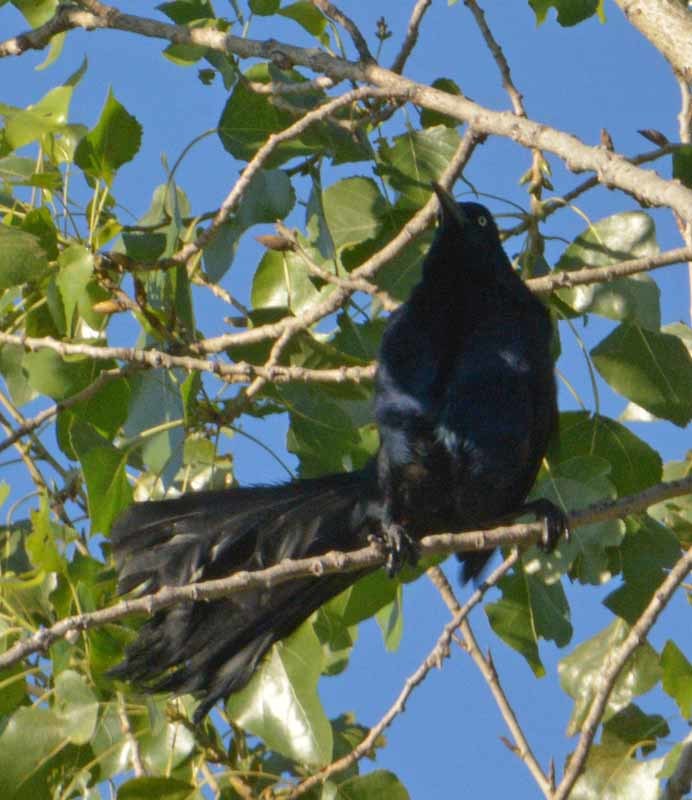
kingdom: Animalia
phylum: Chordata
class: Aves
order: Passeriformes
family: Icteridae
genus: Quiscalus
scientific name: Quiscalus mexicanus
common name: Great-tailed grackle
